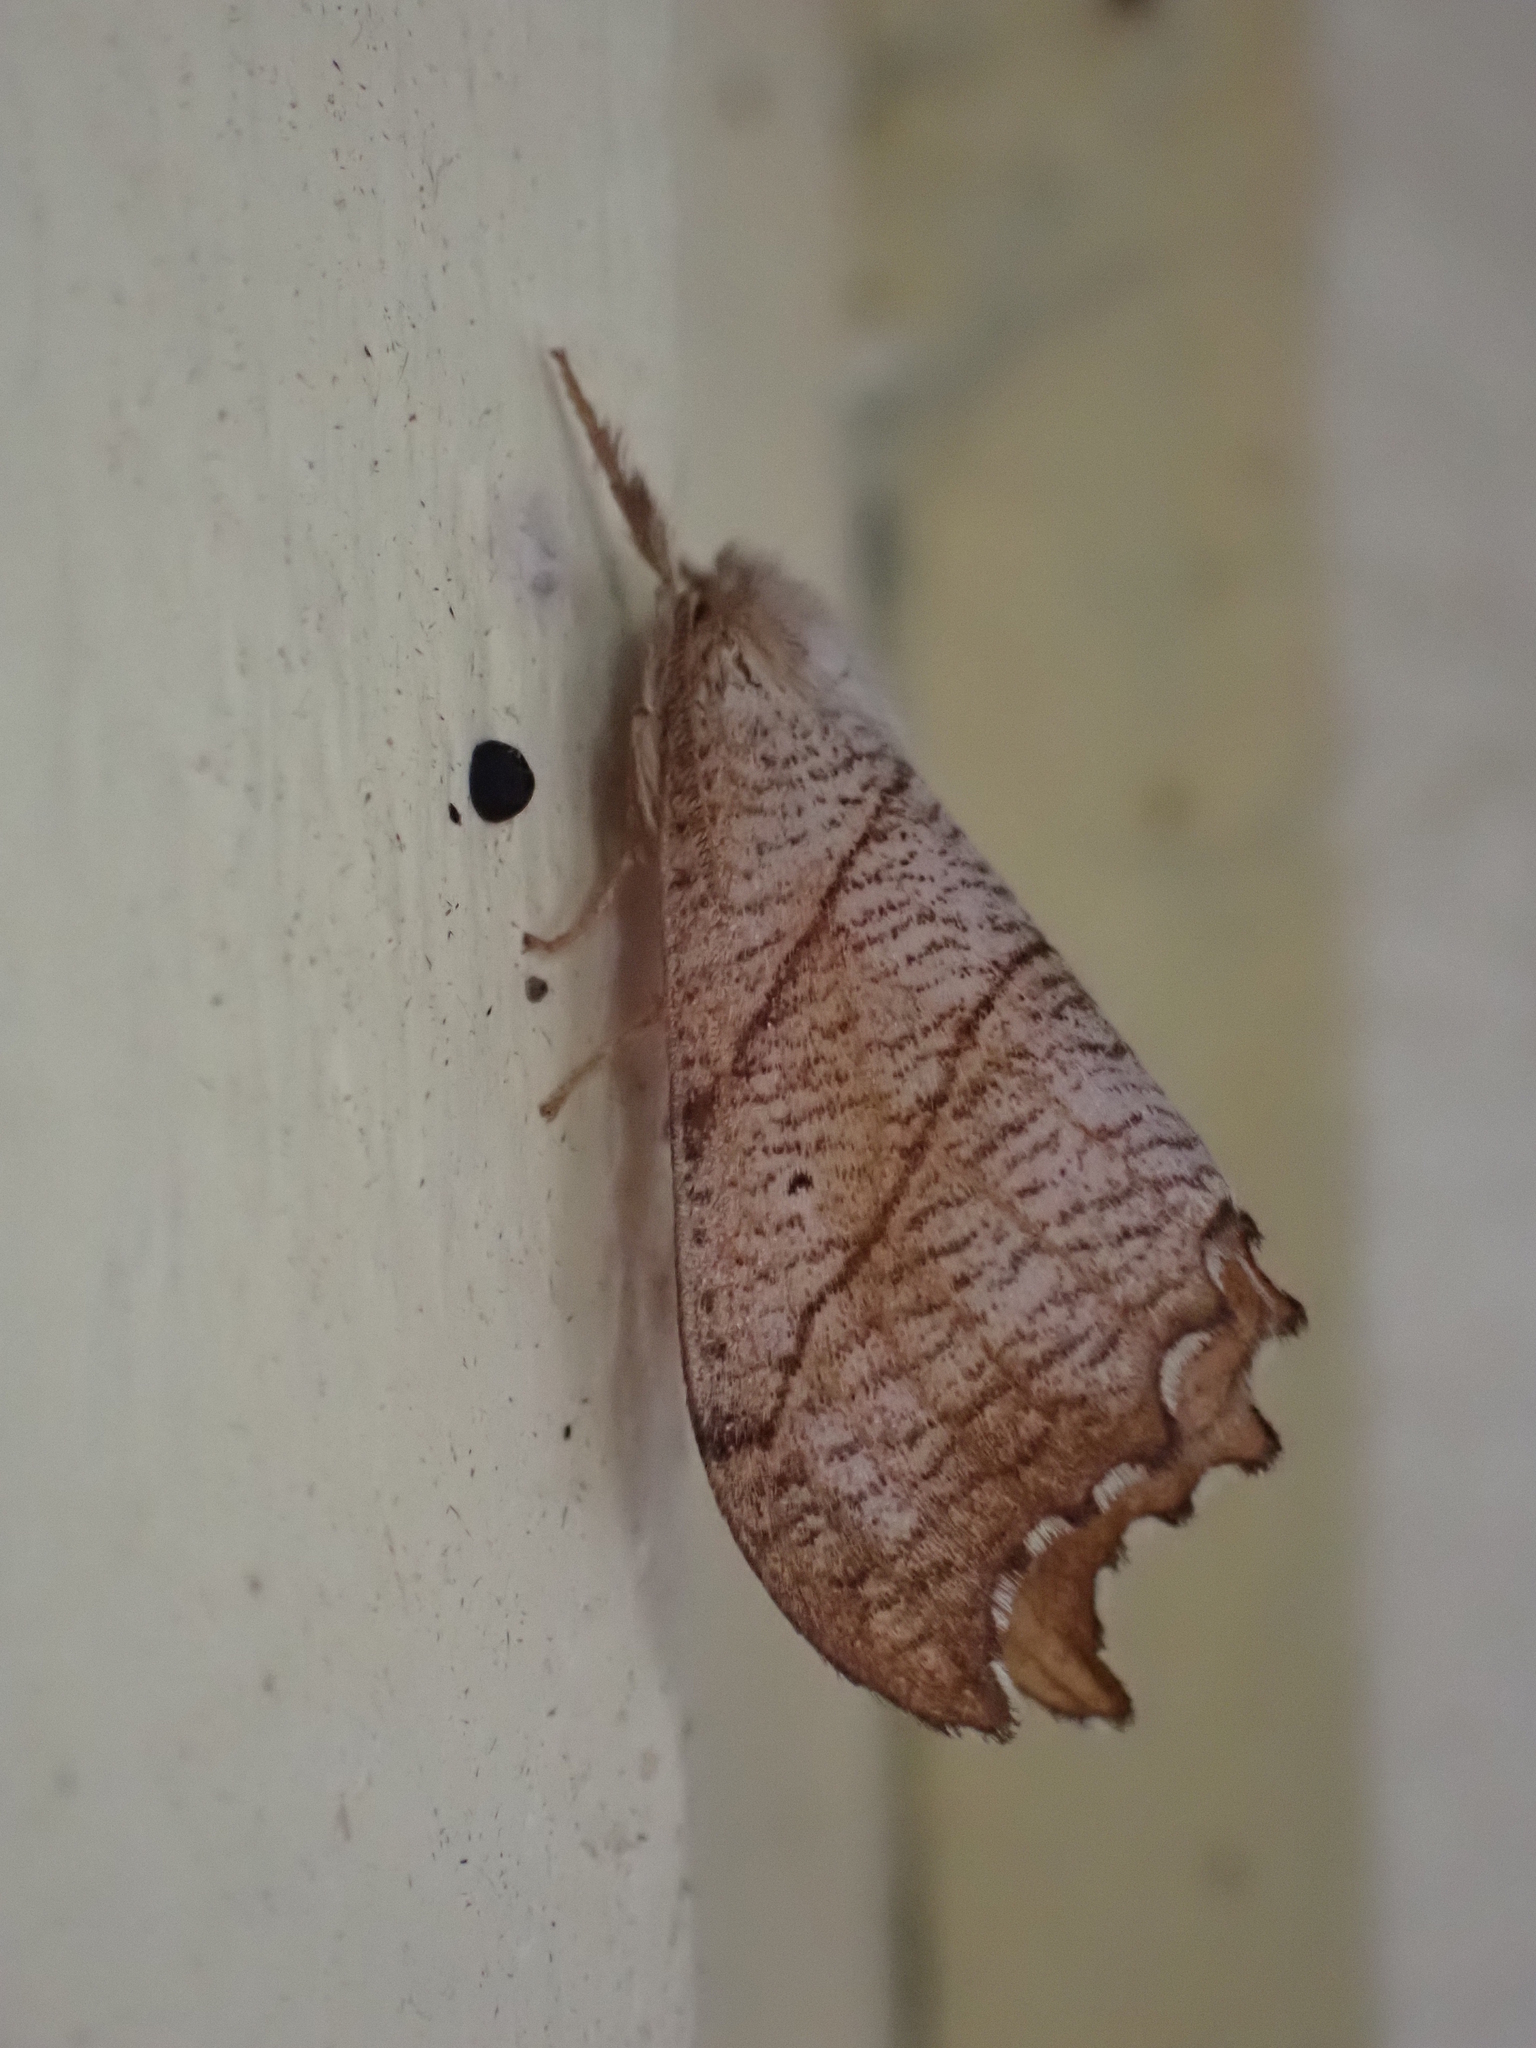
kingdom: Animalia
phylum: Arthropoda
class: Insecta
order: Lepidoptera
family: Drepanidae
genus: Falcaria
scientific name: Falcaria bilineata
